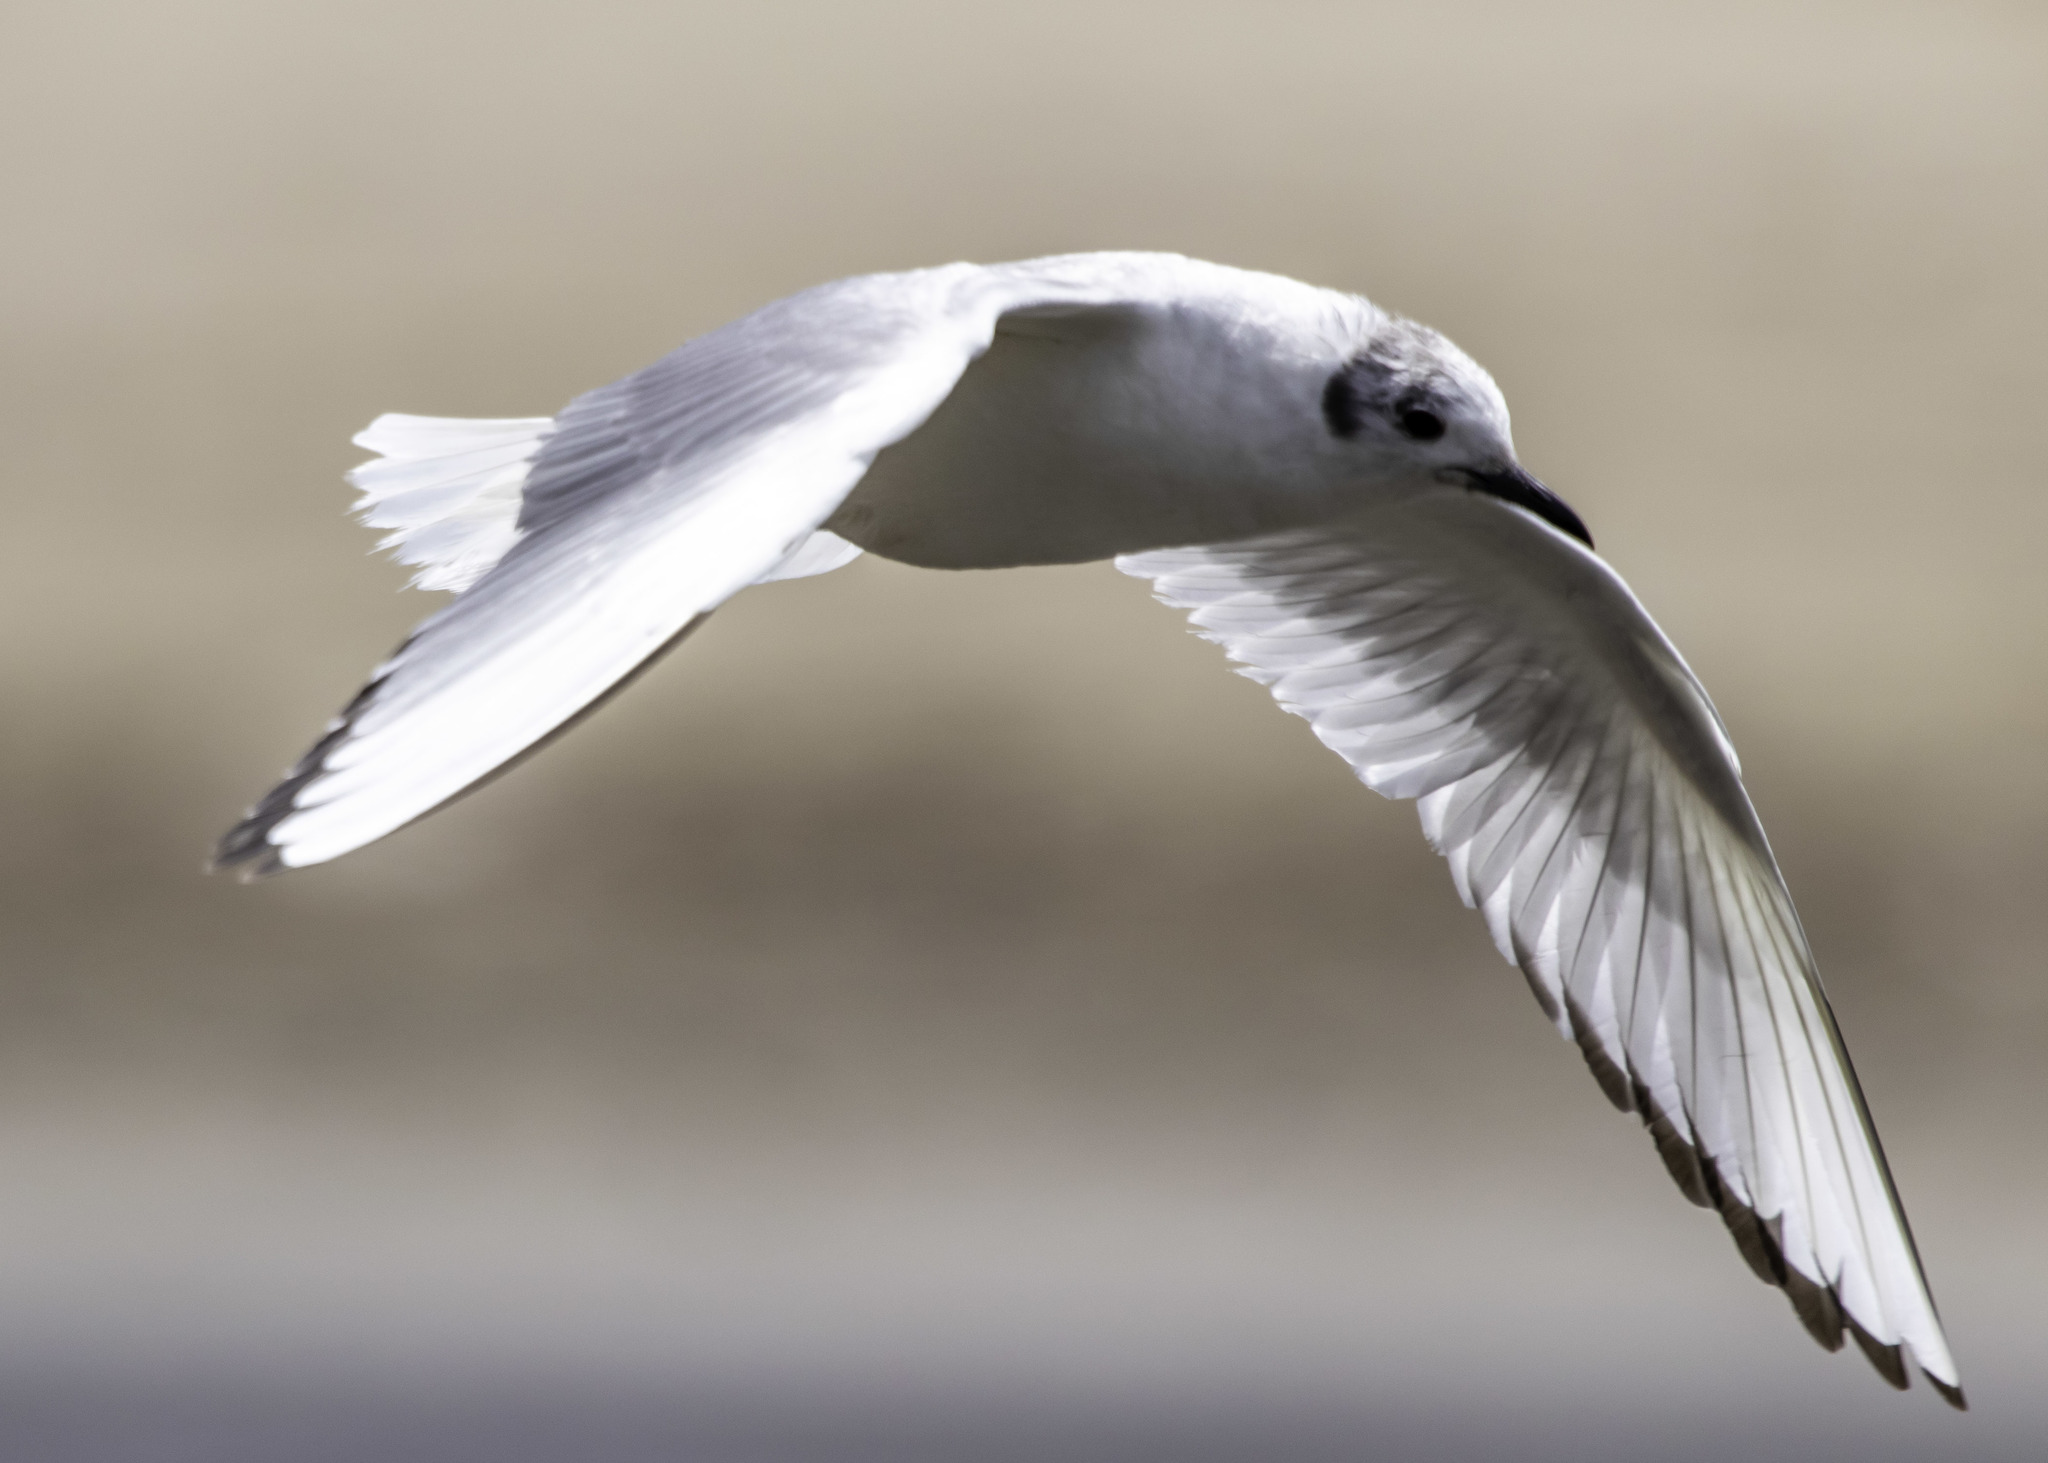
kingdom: Animalia
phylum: Chordata
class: Aves
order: Charadriiformes
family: Laridae
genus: Chroicocephalus
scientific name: Chroicocephalus philadelphia
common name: Bonaparte's gull
